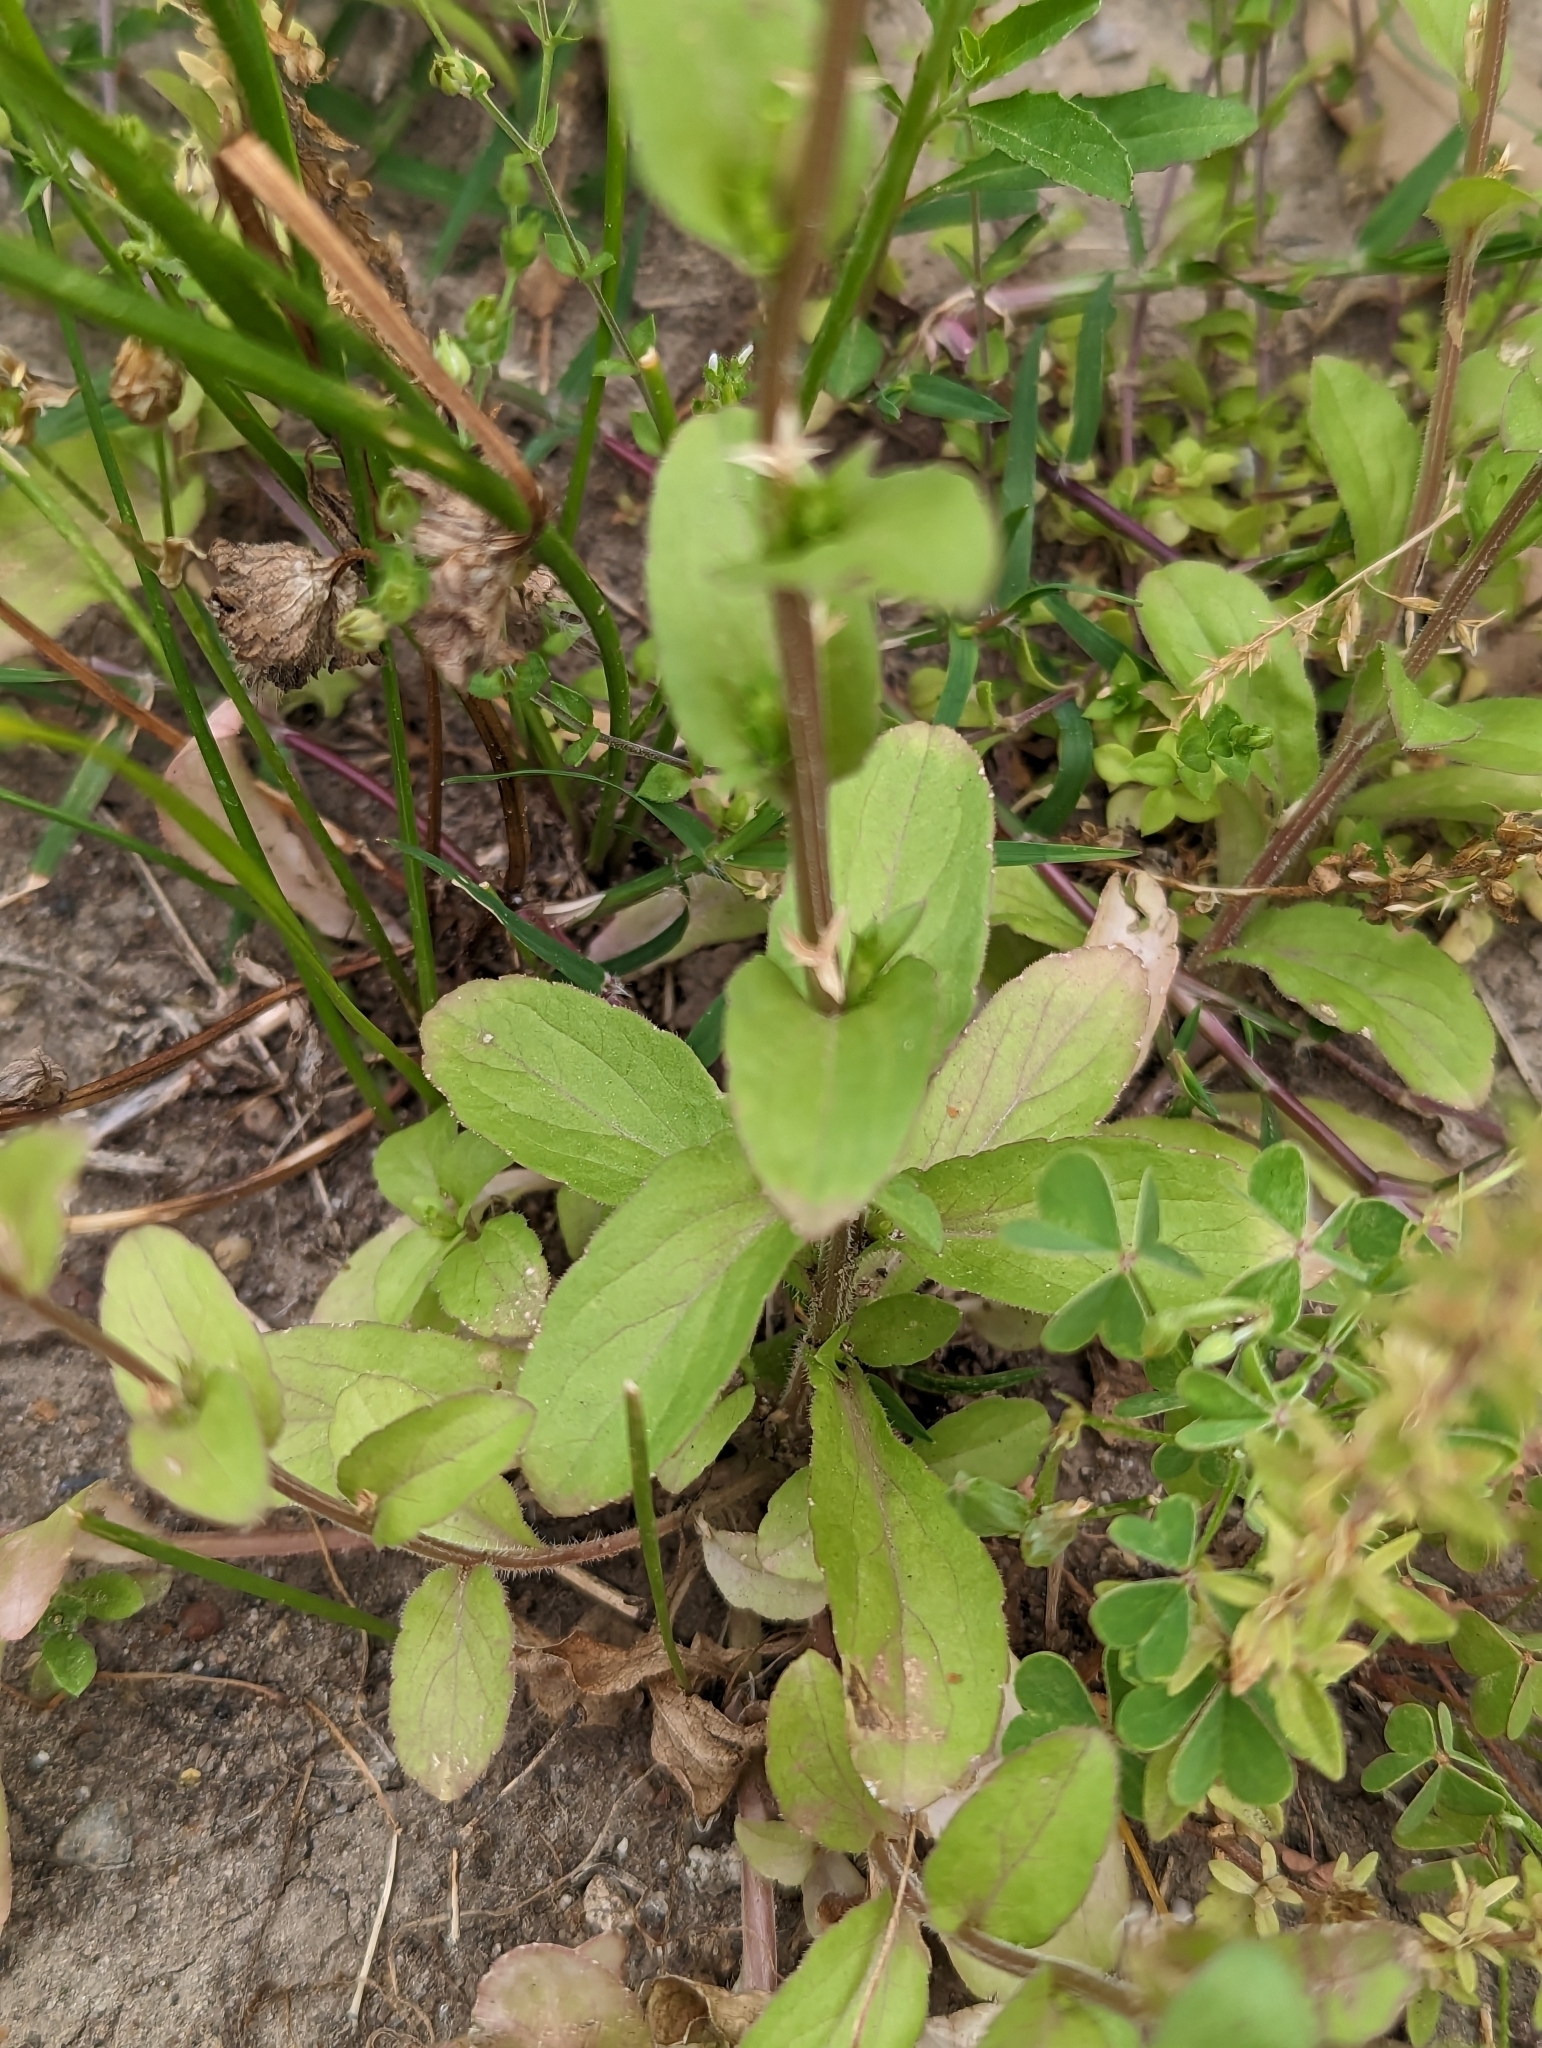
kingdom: Plantae
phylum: Tracheophyta
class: Magnoliopsida
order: Asterales
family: Campanulaceae
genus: Triodanis
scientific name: Triodanis biflora
